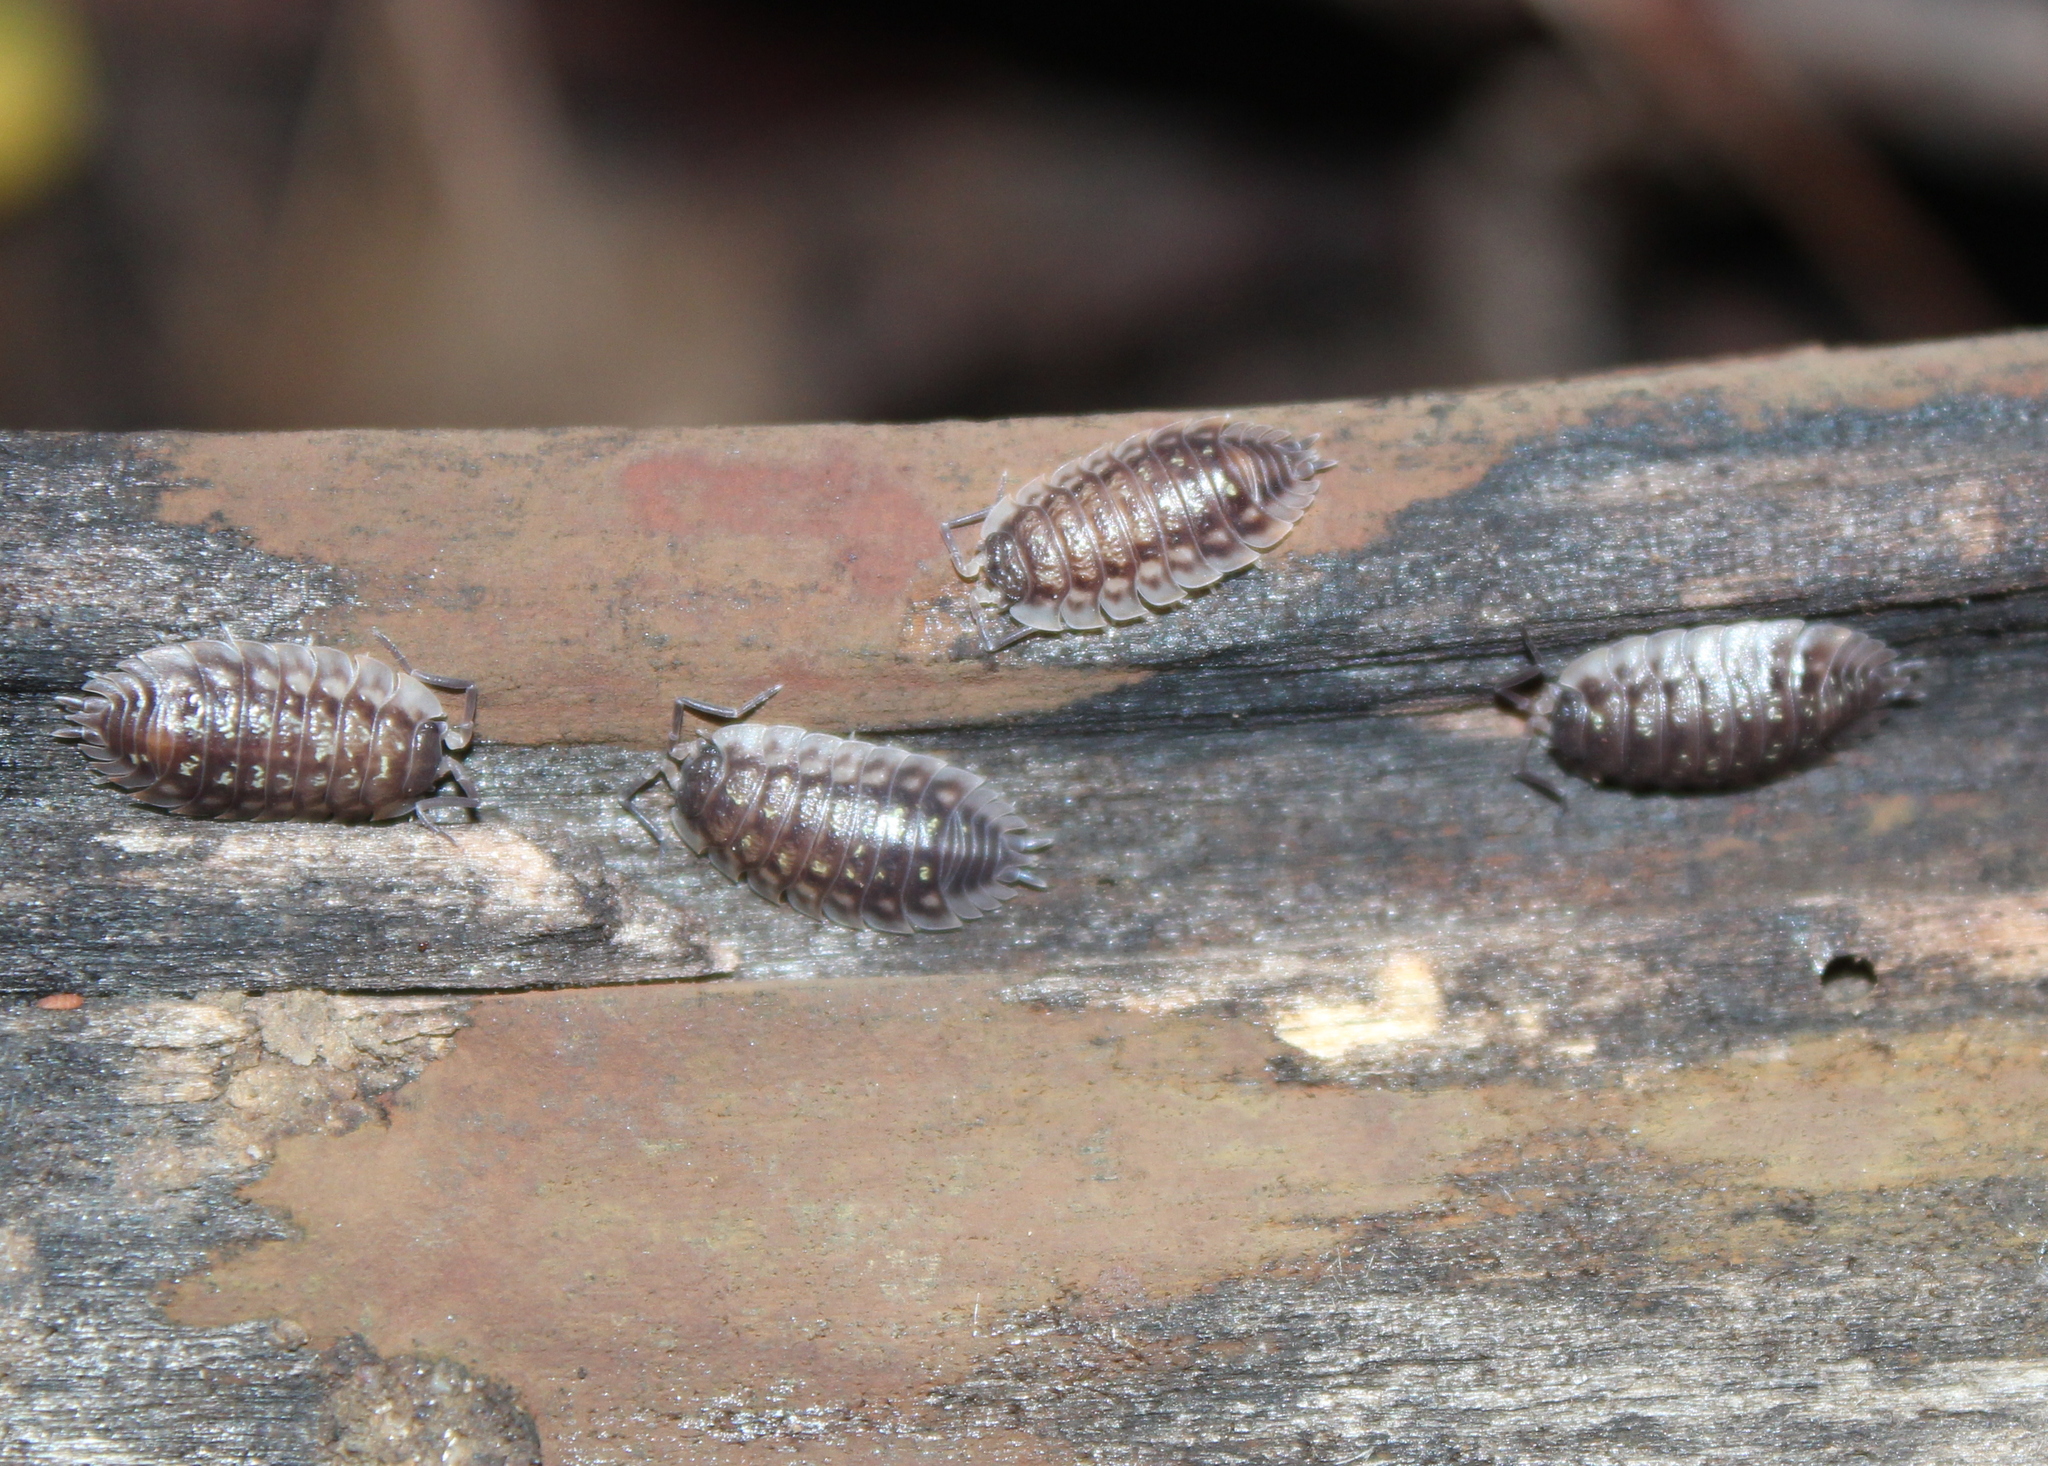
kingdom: Animalia
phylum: Arthropoda
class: Malacostraca
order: Isopoda
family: Oniscidae
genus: Oniscus
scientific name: Oniscus asellus
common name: Common shiny woodlouse
